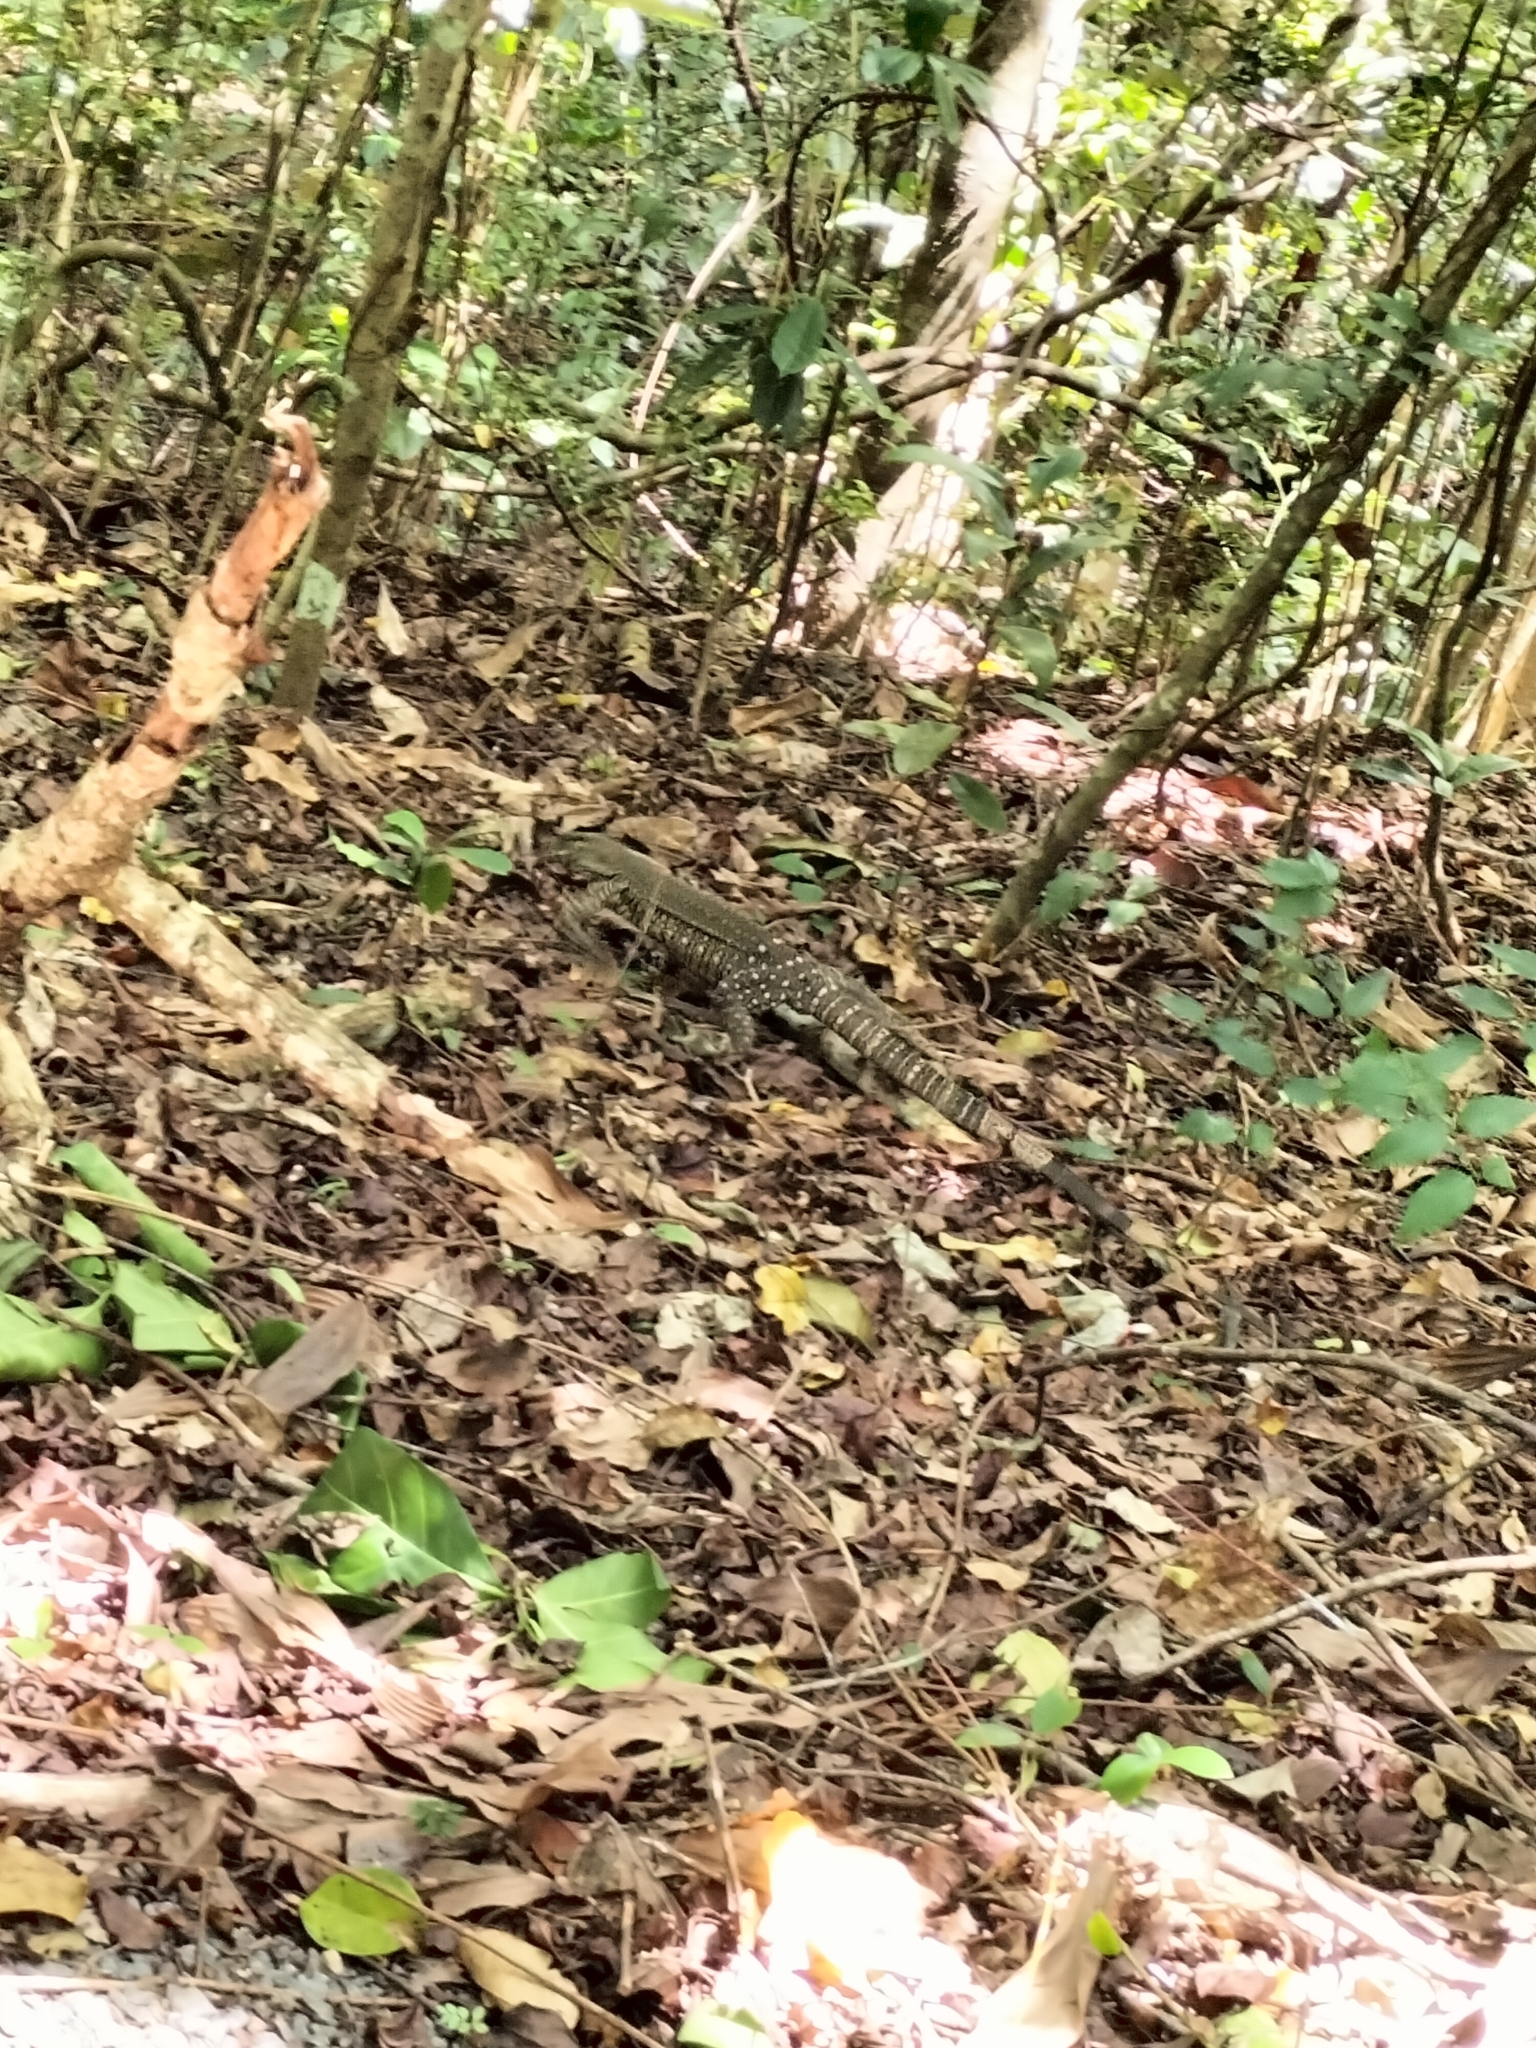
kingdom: Animalia
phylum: Chordata
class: Squamata
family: Varanidae
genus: Varanus
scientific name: Varanus varius
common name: Lace monitor
